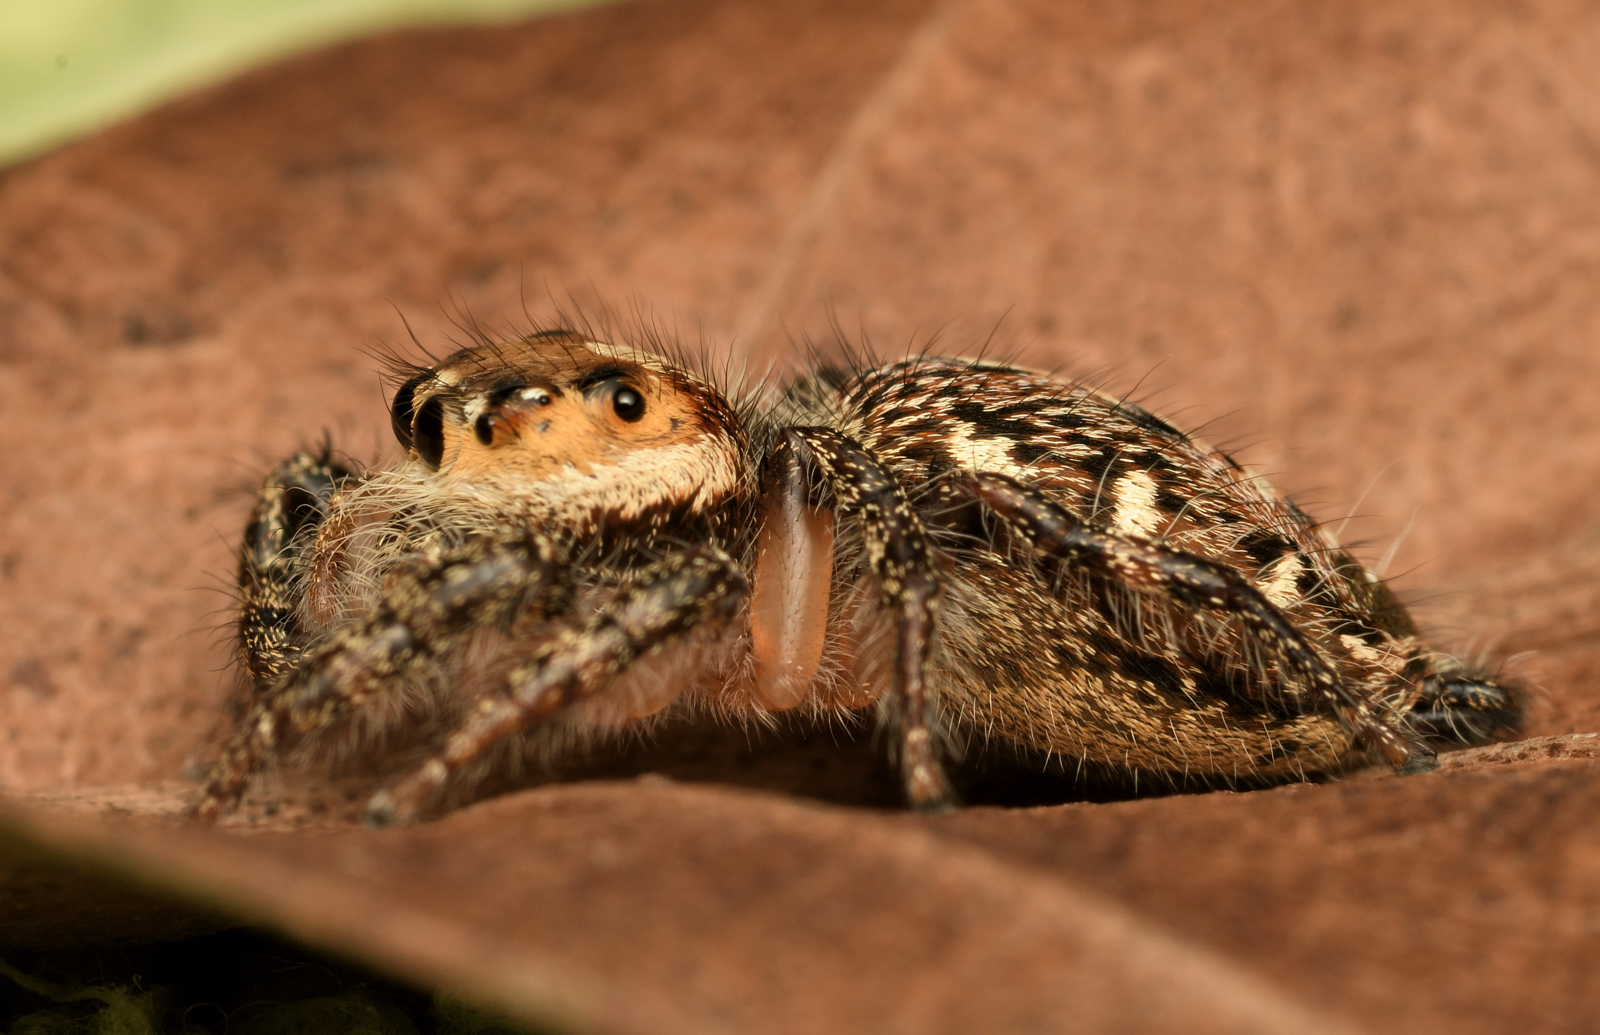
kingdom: Animalia
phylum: Arthropoda
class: Arachnida
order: Araneae
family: Salticidae
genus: Hyllus
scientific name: Hyllus semicupreus
